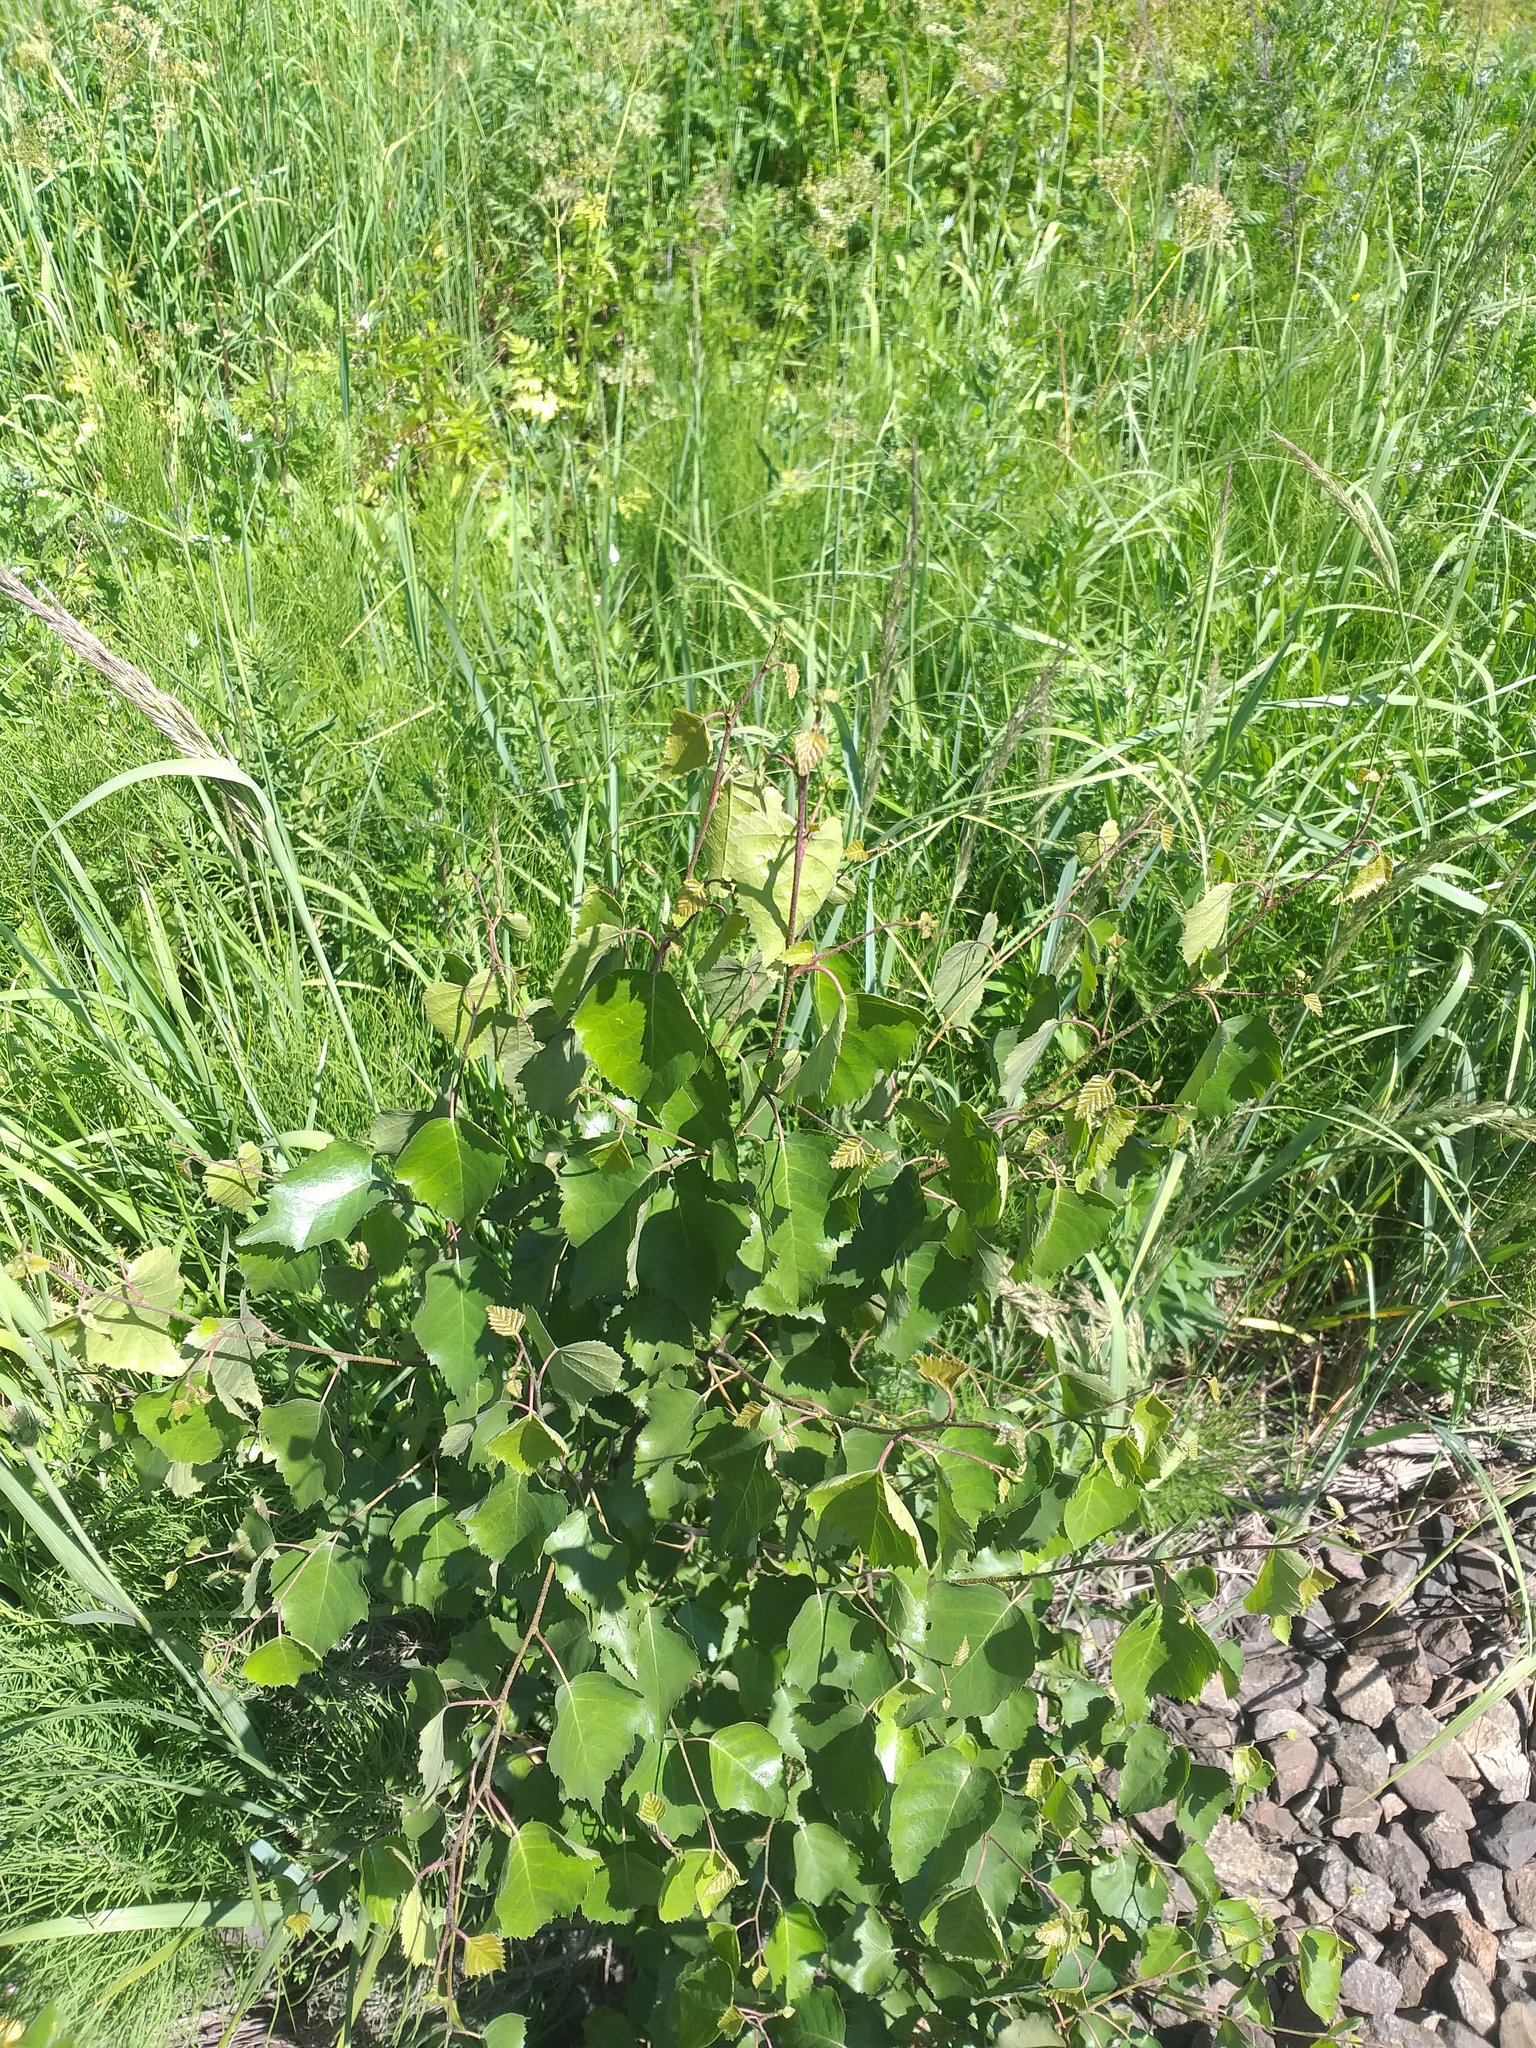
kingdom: Plantae
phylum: Tracheophyta
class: Magnoliopsida
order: Fagales
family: Betulaceae
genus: Betula
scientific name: Betula pendula
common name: Silver birch
